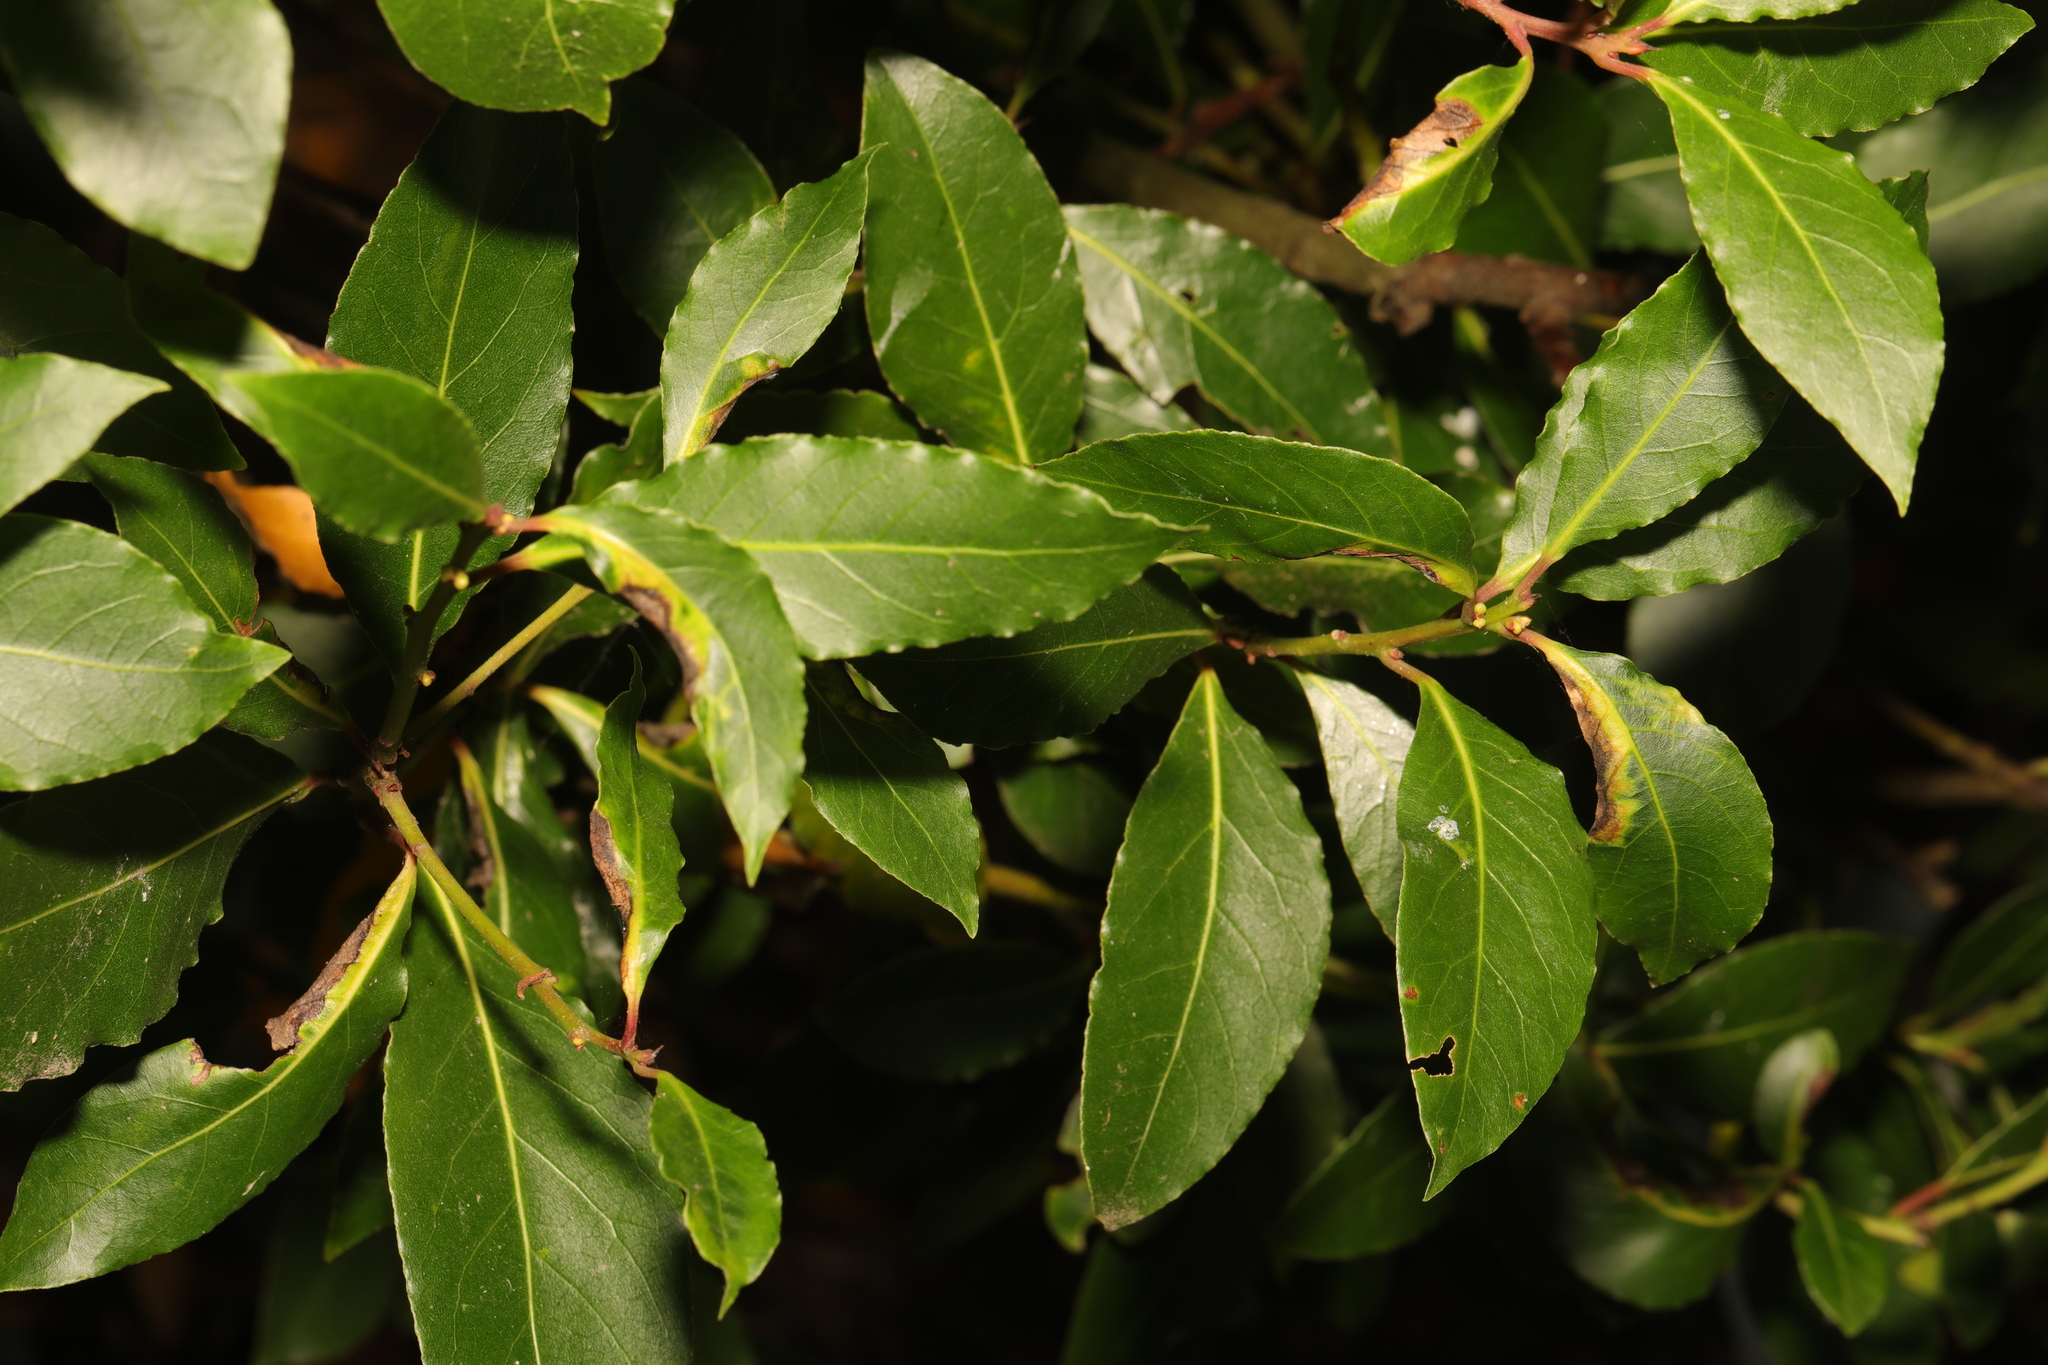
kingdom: Plantae
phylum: Tracheophyta
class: Magnoliopsida
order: Laurales
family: Lauraceae
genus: Laurus
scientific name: Laurus nobilis
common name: Bay
